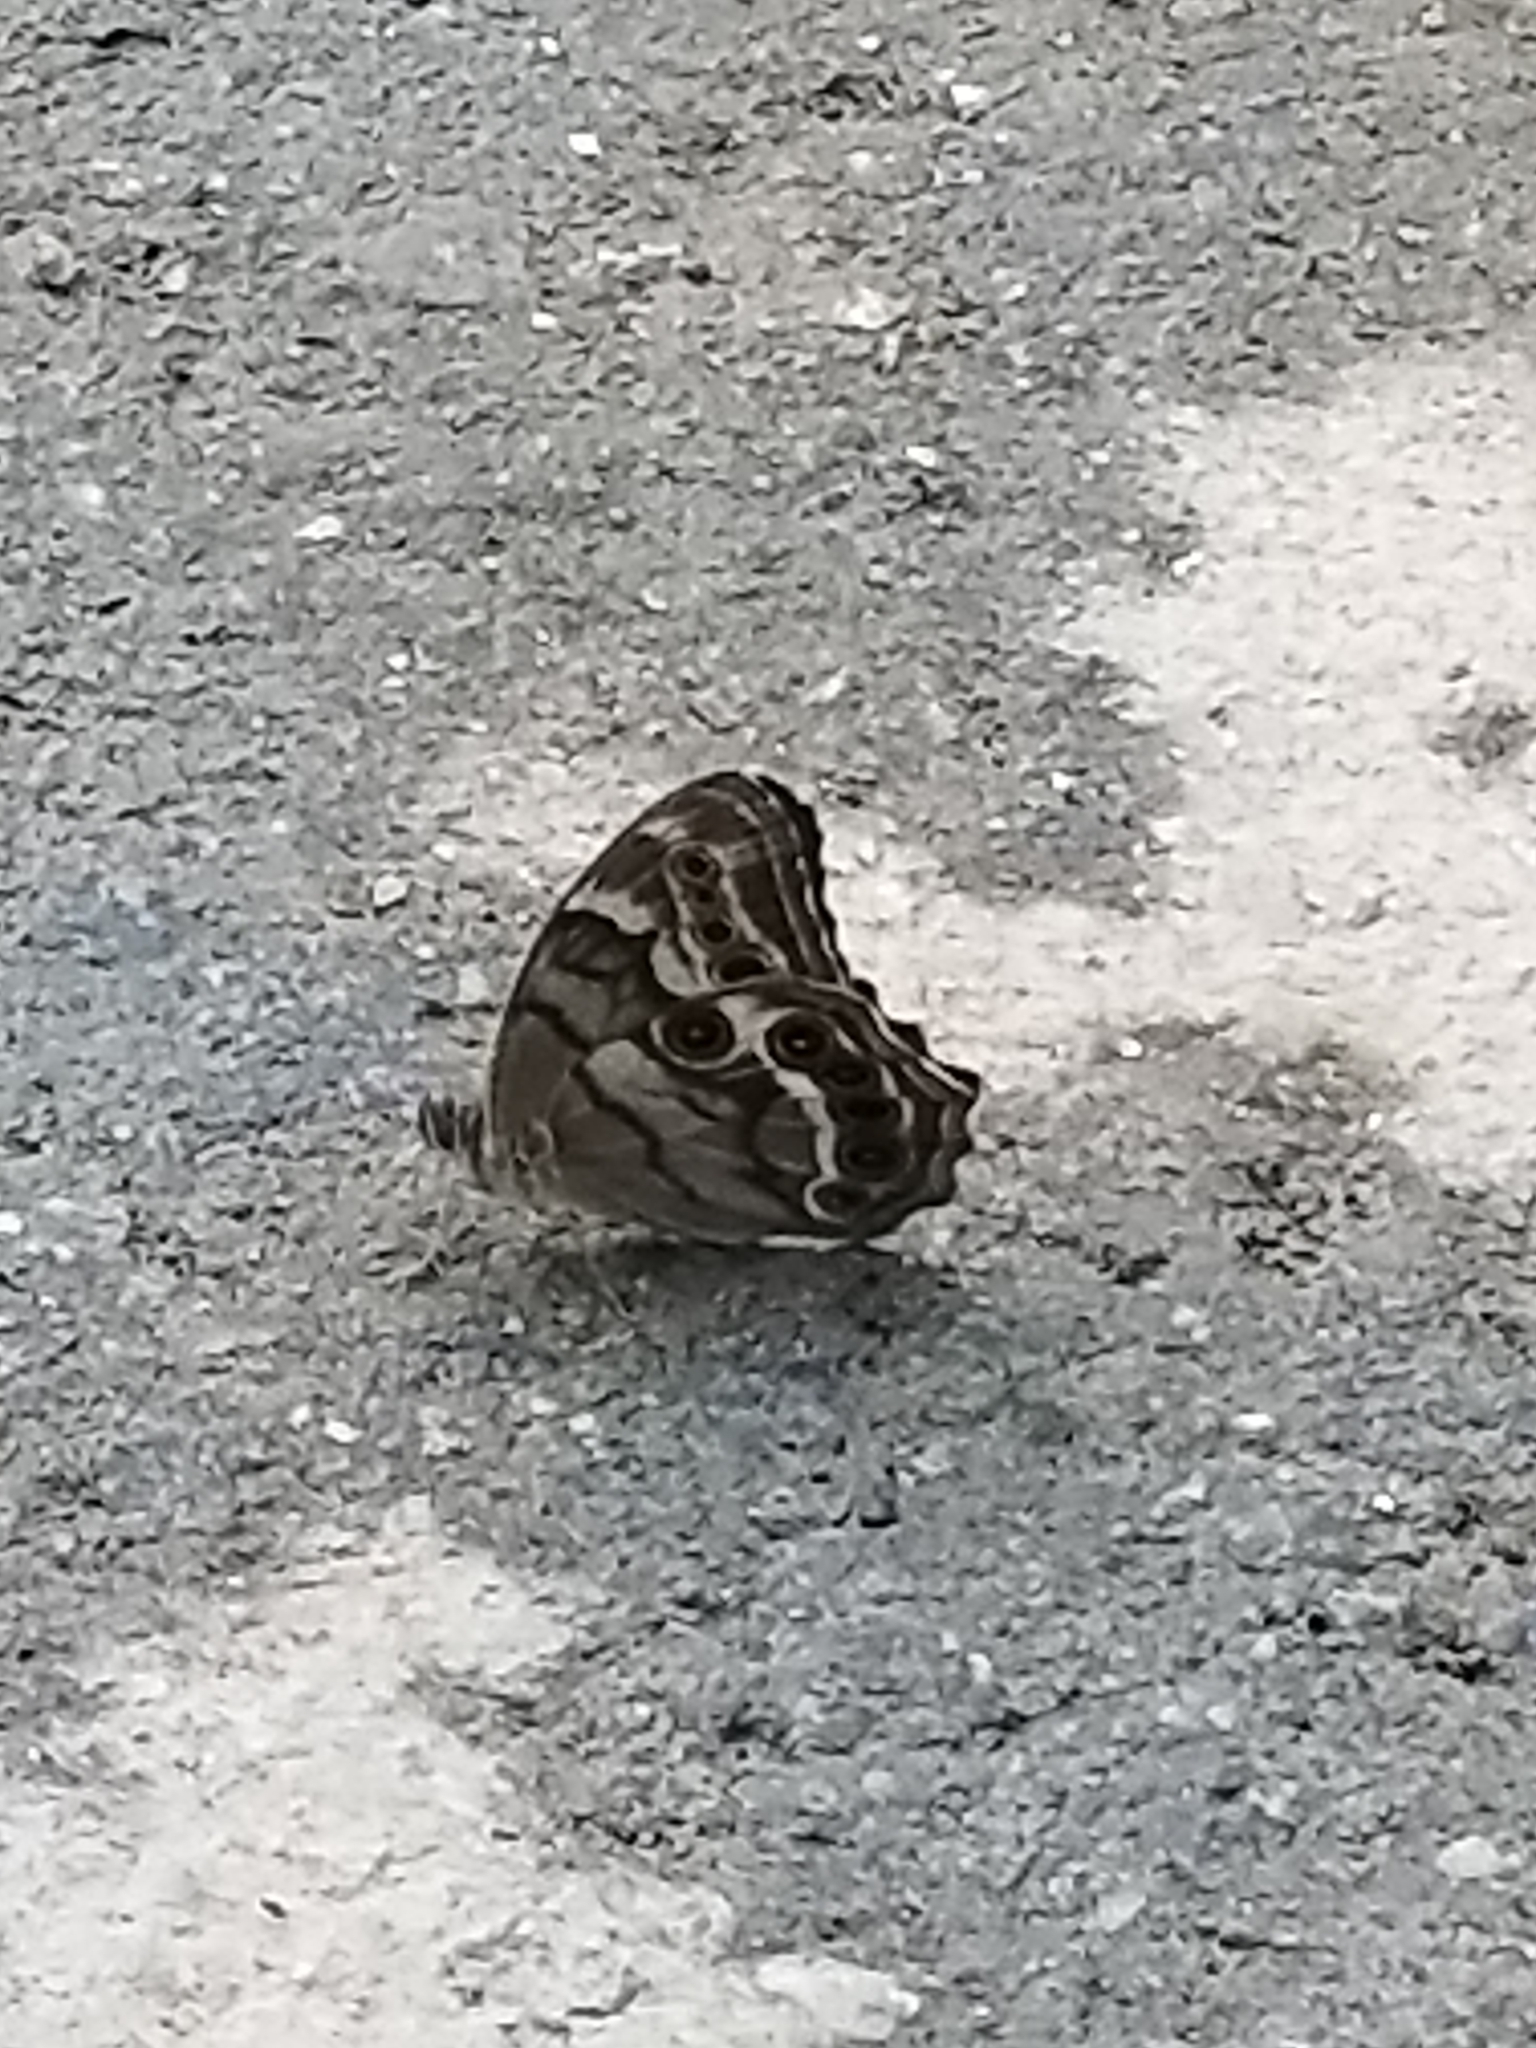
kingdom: Animalia
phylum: Arthropoda
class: Insecta
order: Lepidoptera
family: Nymphalidae
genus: Enodia
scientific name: Enodia portlandia
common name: Southern pearly-eye
